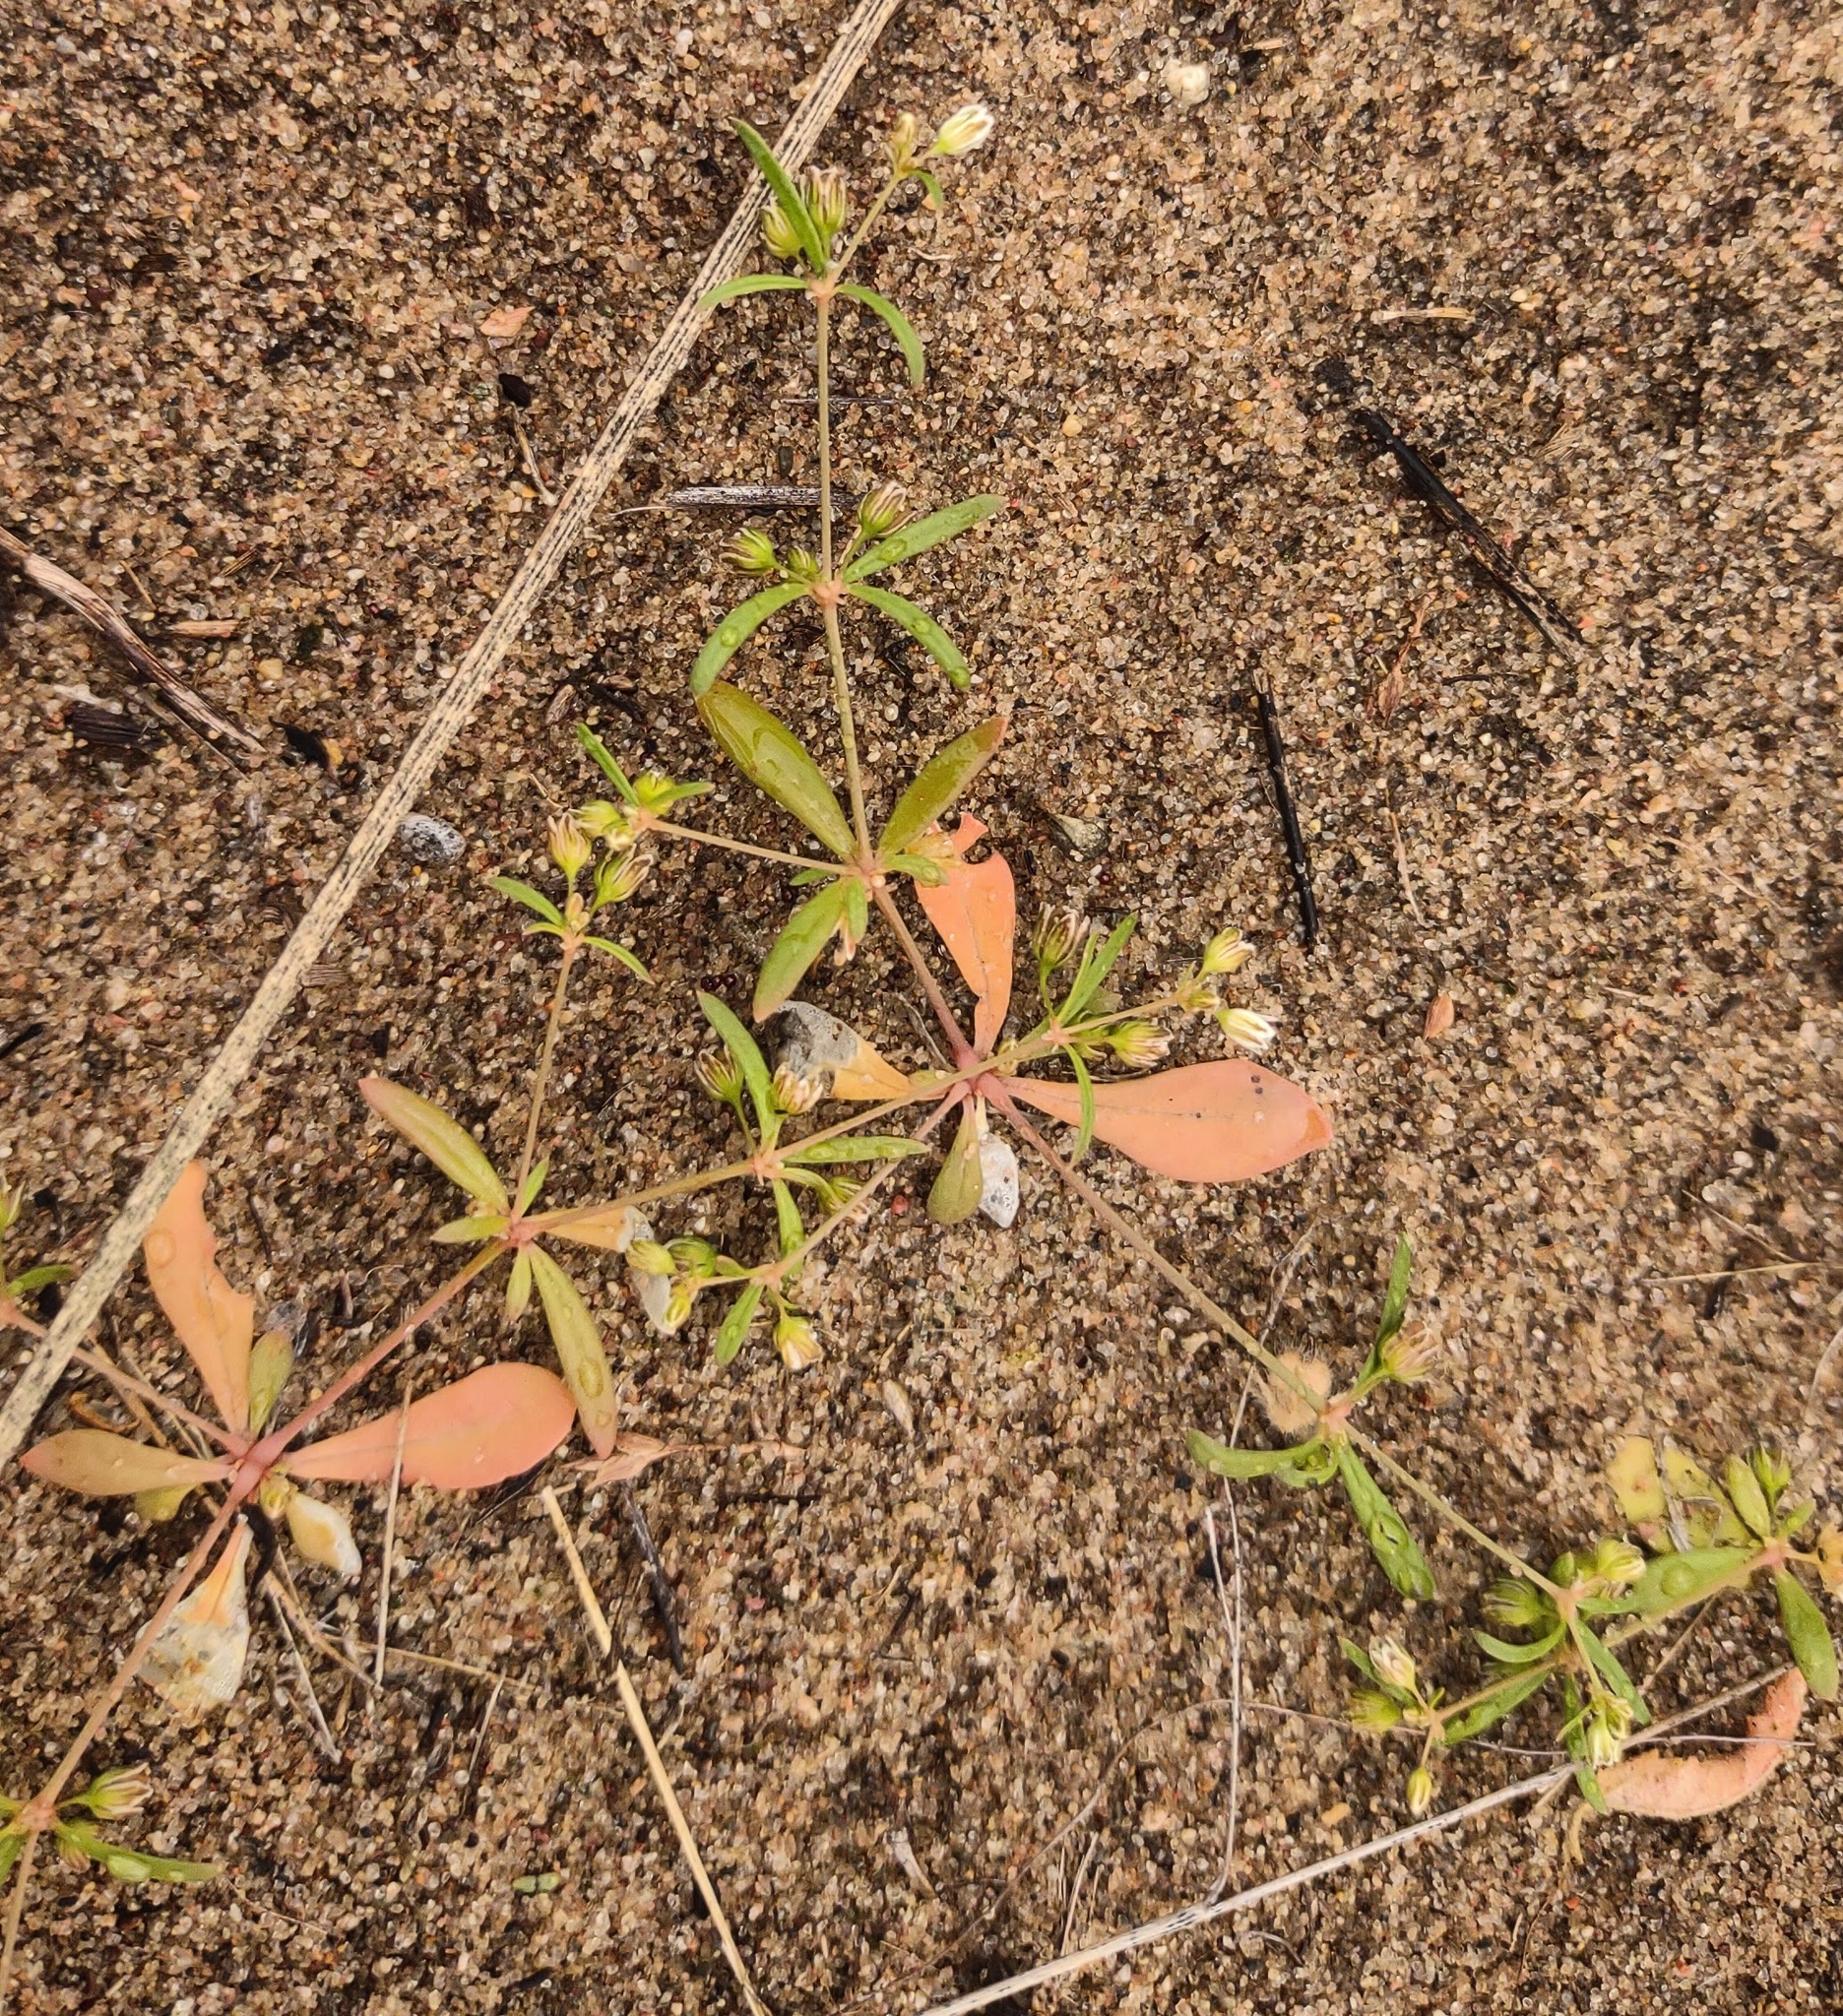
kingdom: Plantae
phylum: Tracheophyta
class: Magnoliopsida
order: Caryophyllales
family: Molluginaceae
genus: Mollugo
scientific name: Mollugo verticillata
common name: Green carpetweed
